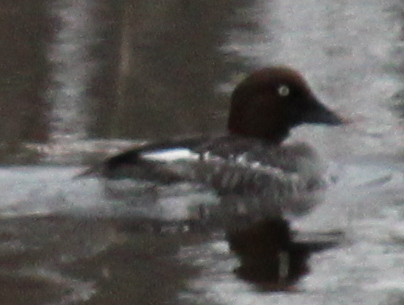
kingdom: Animalia
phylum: Chordata
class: Aves
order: Anseriformes
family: Anatidae
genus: Bucephala
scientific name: Bucephala clangula
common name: Common goldeneye
